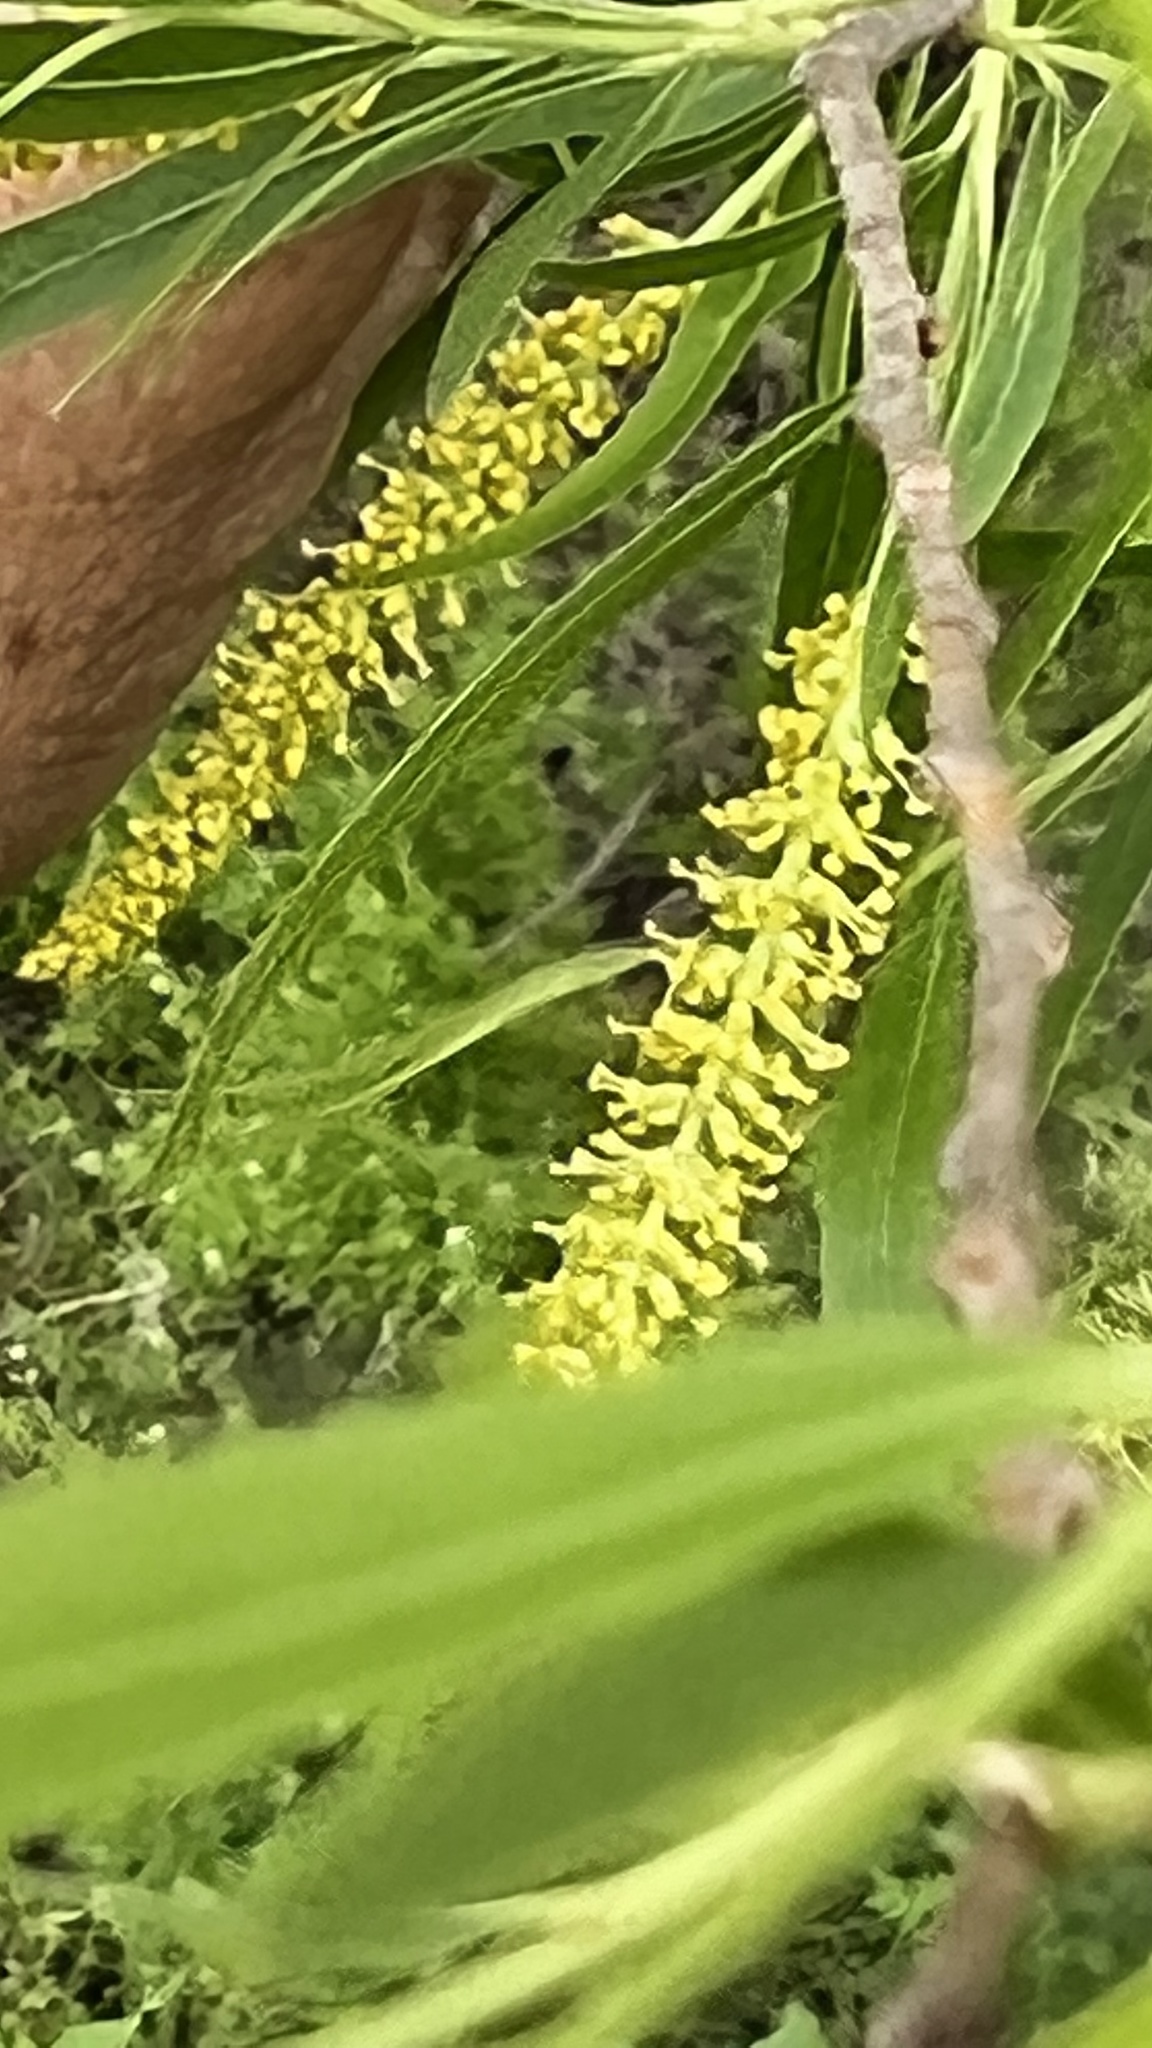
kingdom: Plantae
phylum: Tracheophyta
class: Magnoliopsida
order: Malpighiales
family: Salicaceae
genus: Salix
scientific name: Salix nigra
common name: Black willow
